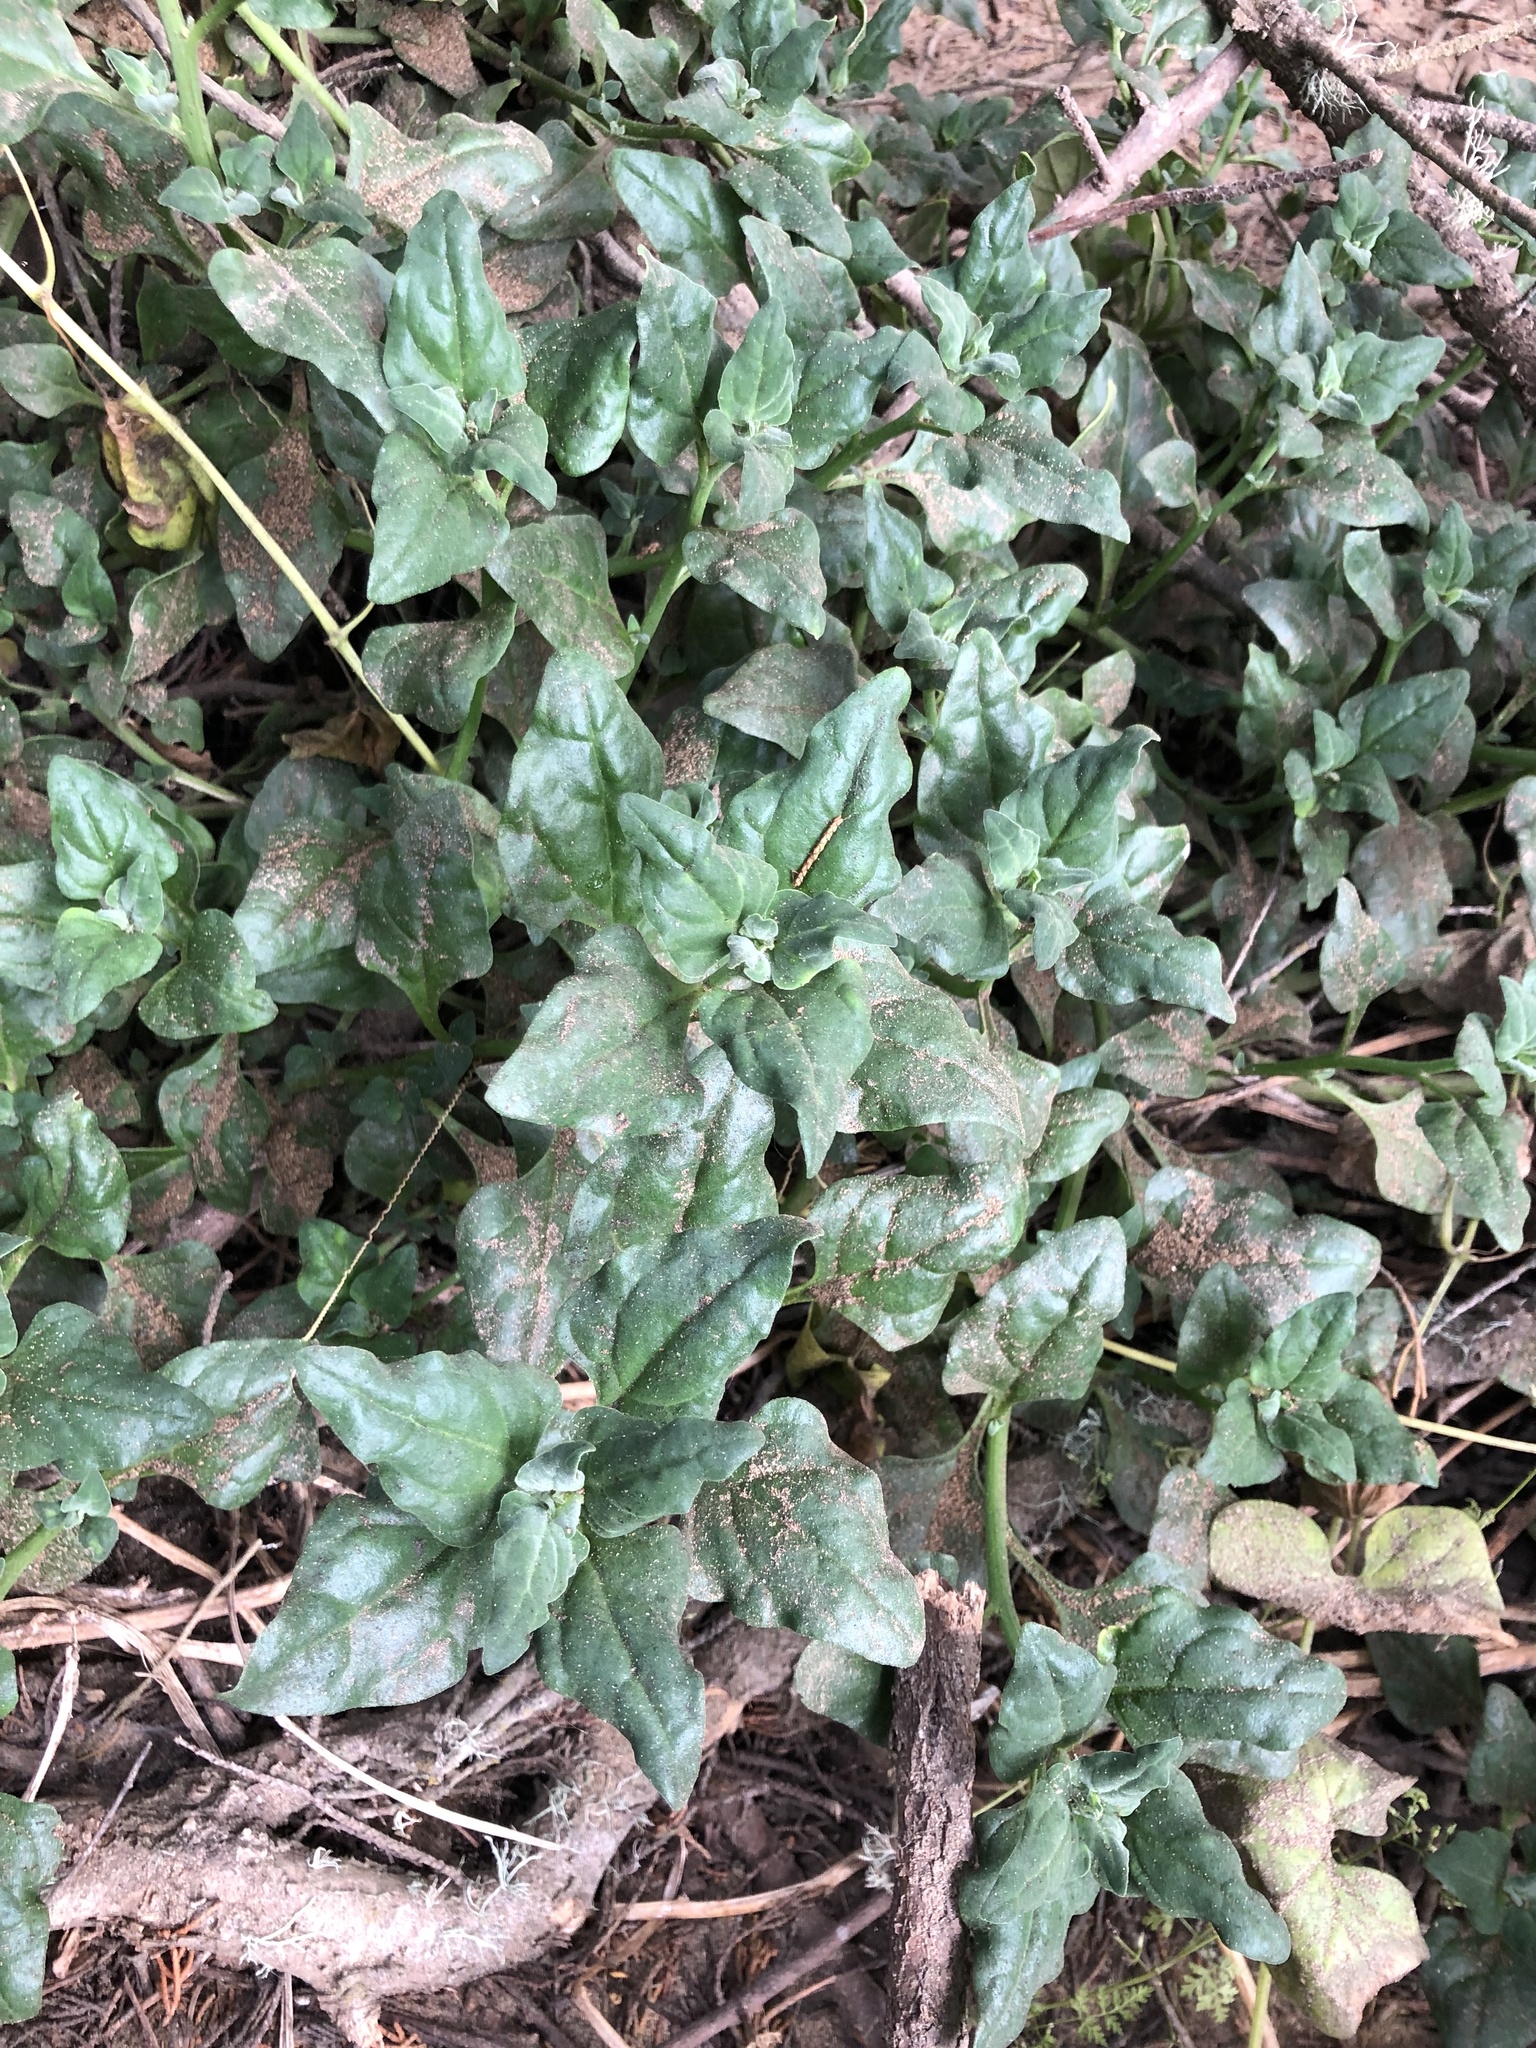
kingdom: Plantae
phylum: Tracheophyta
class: Magnoliopsida
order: Caryophyllales
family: Aizoaceae
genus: Tetragonia
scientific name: Tetragonia tetragonoides
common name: New zealand-spinach
